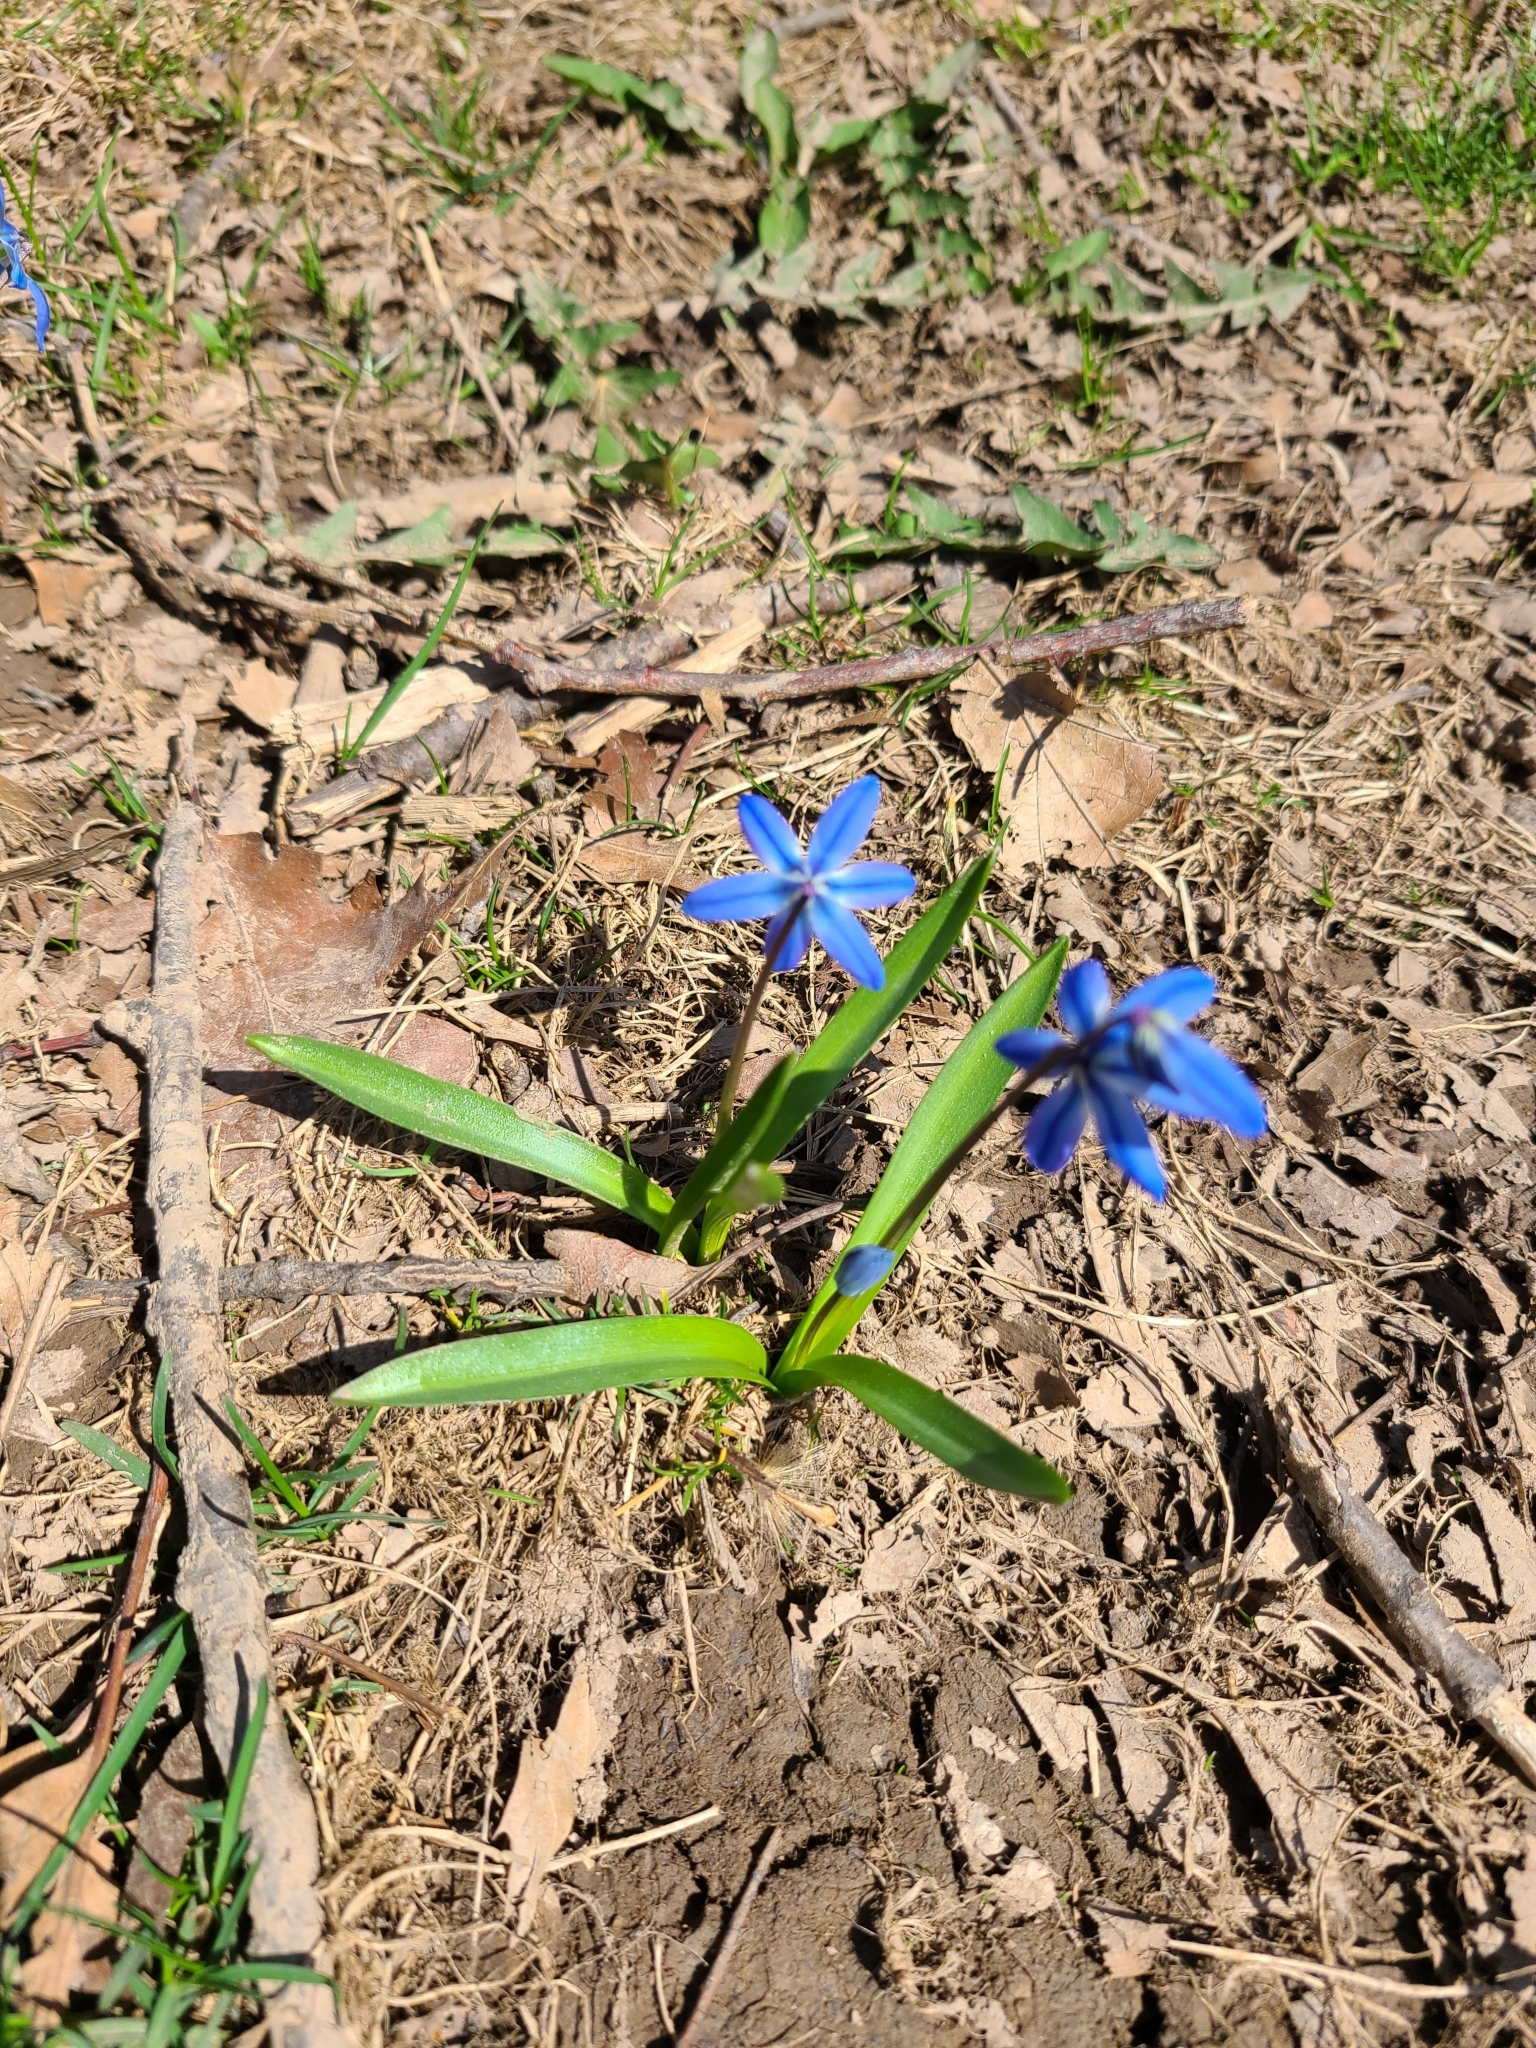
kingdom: Plantae
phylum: Tracheophyta
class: Liliopsida
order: Asparagales
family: Asparagaceae
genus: Scilla
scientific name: Scilla siberica
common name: Siberian squill
